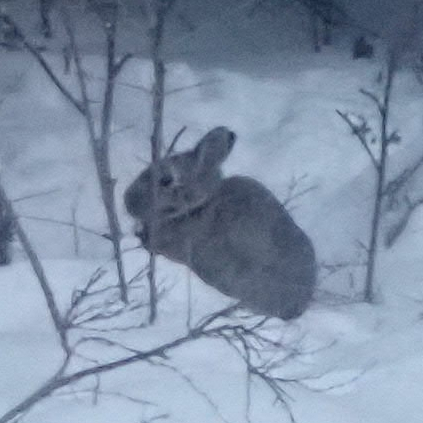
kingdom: Animalia
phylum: Chordata
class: Mammalia
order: Lagomorpha
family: Leporidae
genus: Sylvilagus
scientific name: Sylvilagus floridanus
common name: Eastern cottontail
